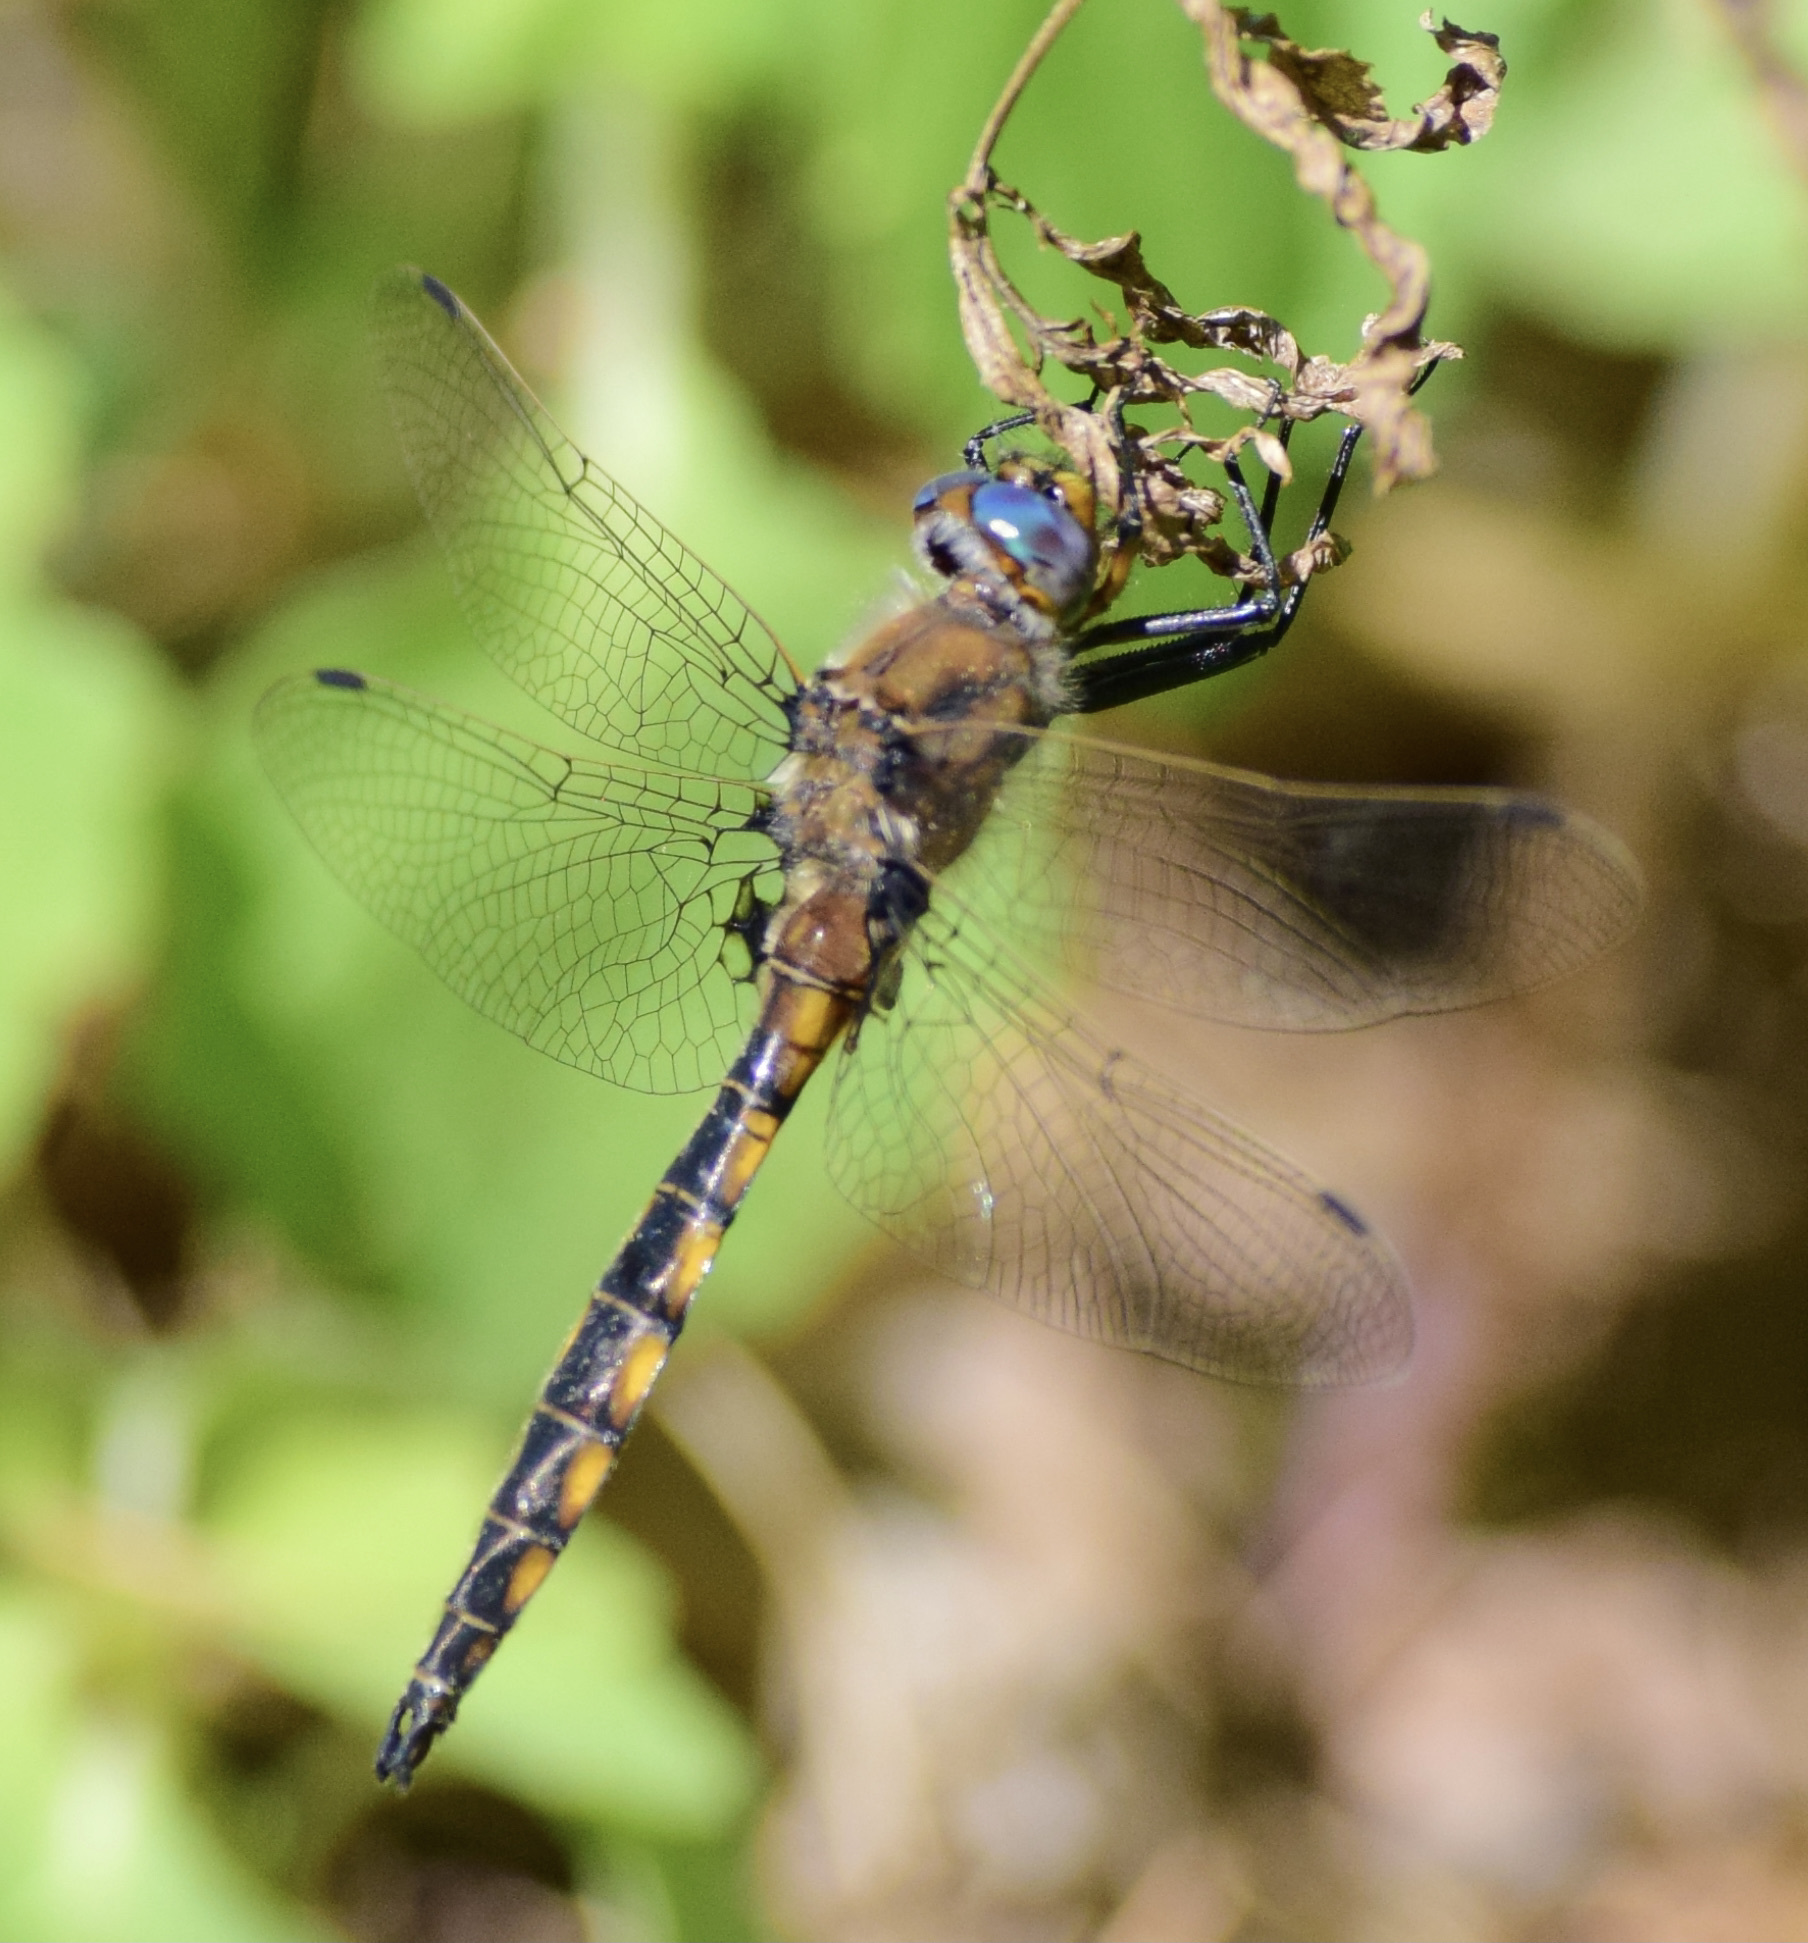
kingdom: Animalia
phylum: Arthropoda
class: Insecta
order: Odonata
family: Corduliidae
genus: Epitheca
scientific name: Epitheca canis
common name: Beaverpond baskettail
